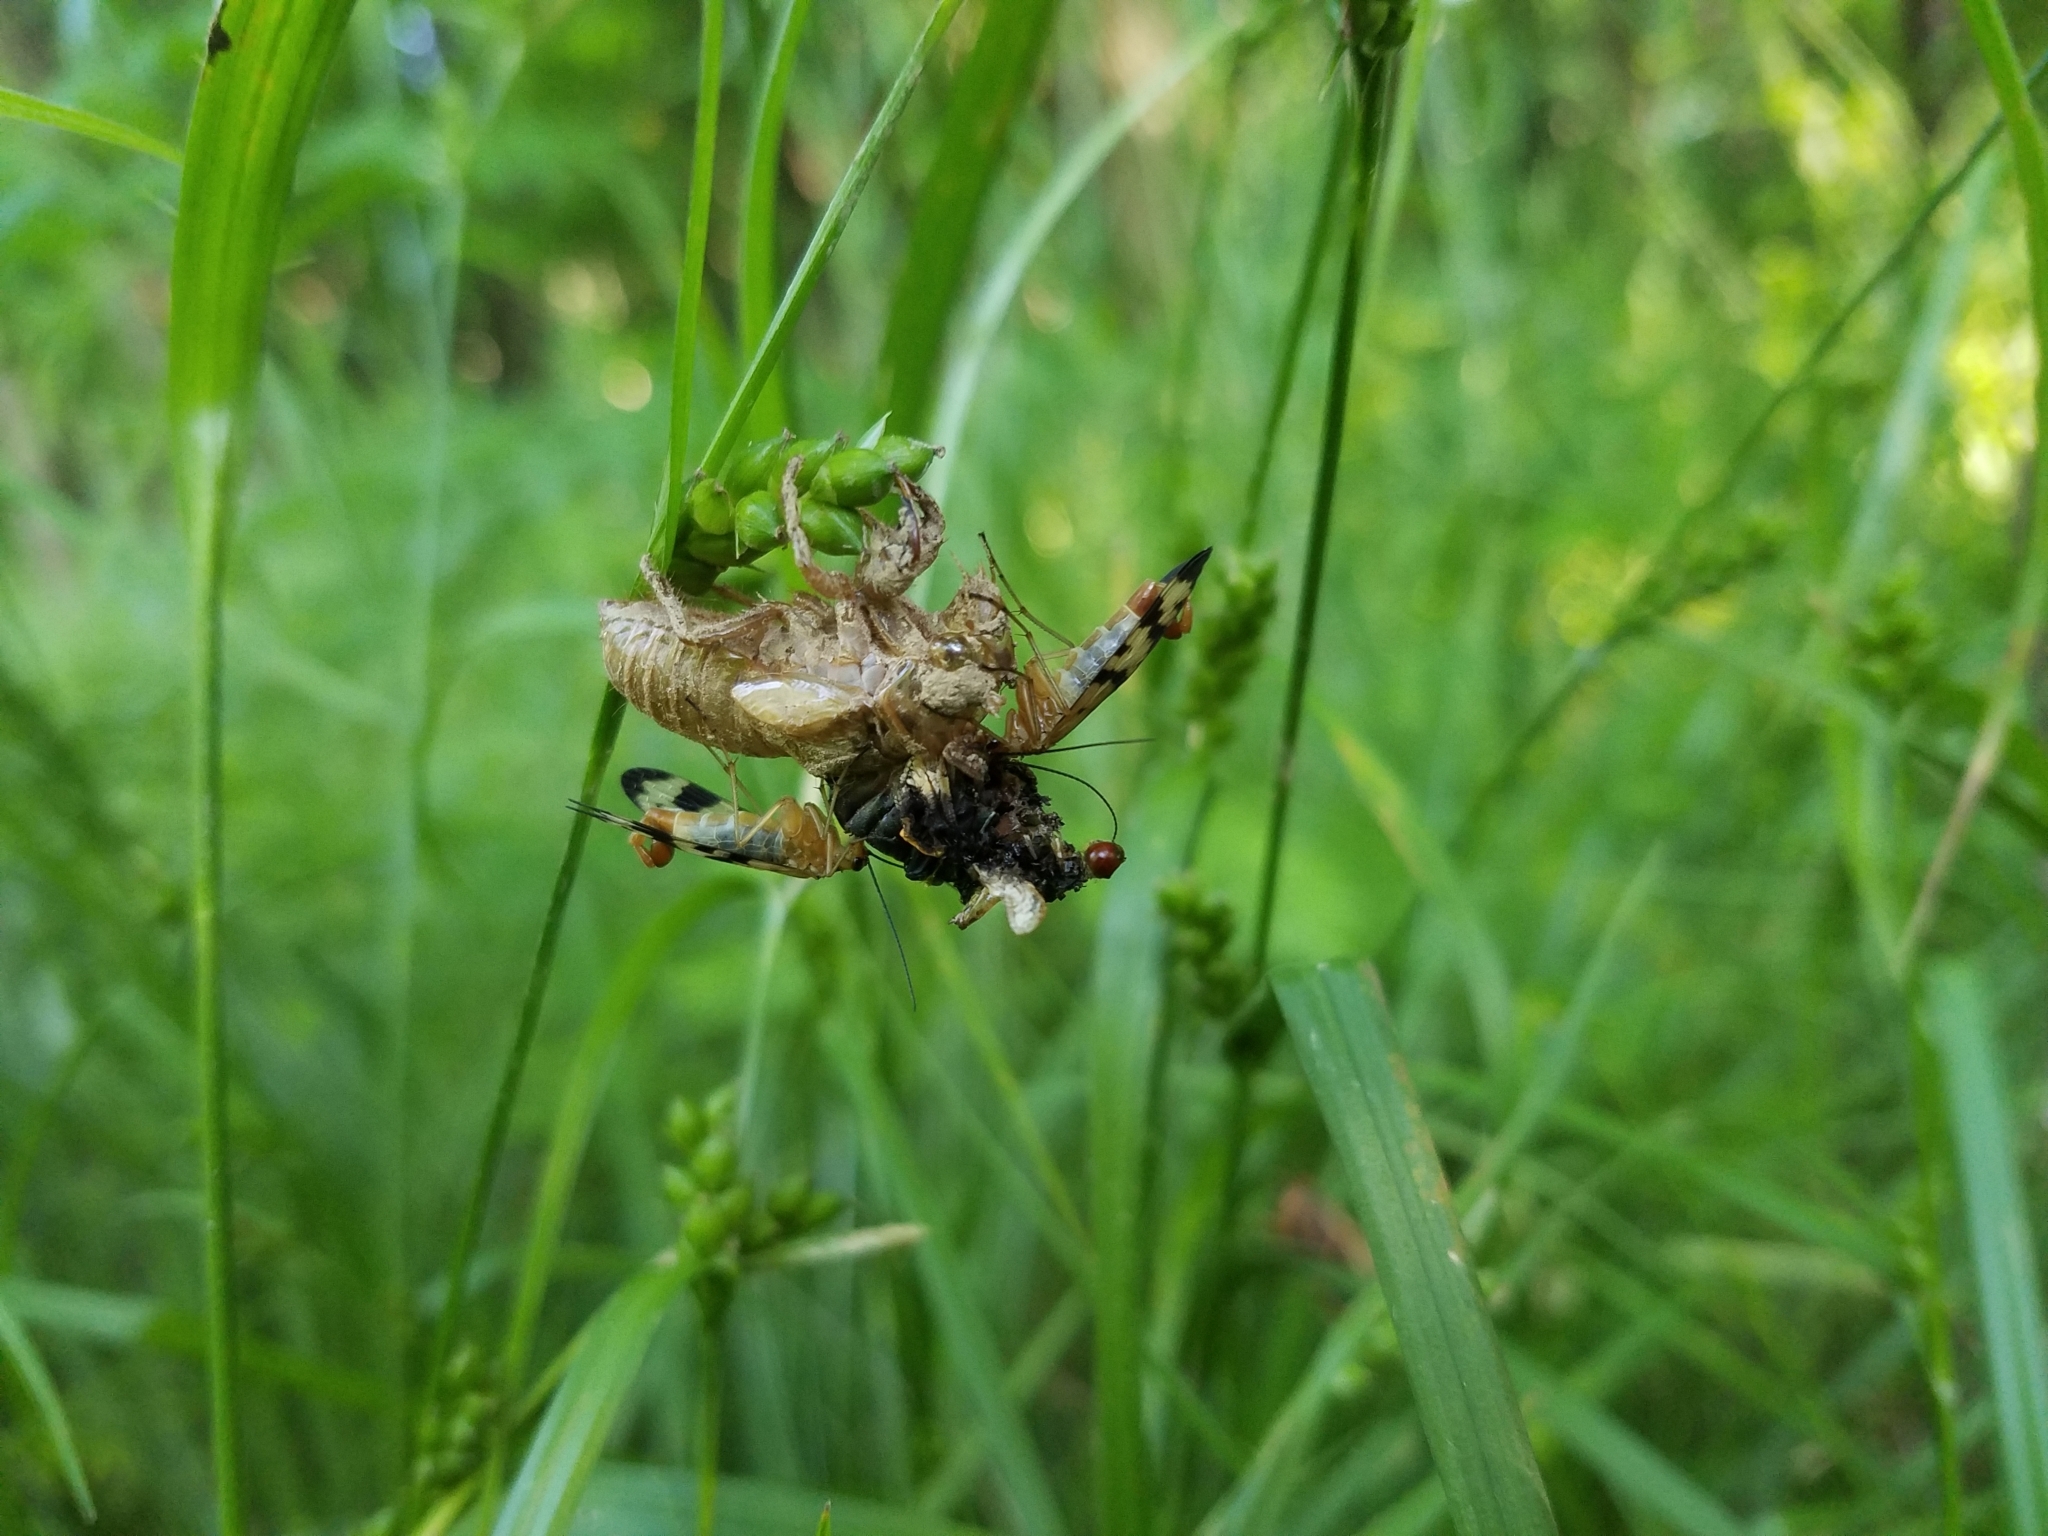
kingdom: Animalia
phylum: Arthropoda
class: Insecta
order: Hemiptera
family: Cicadidae
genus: Magicicada
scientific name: Magicicada
